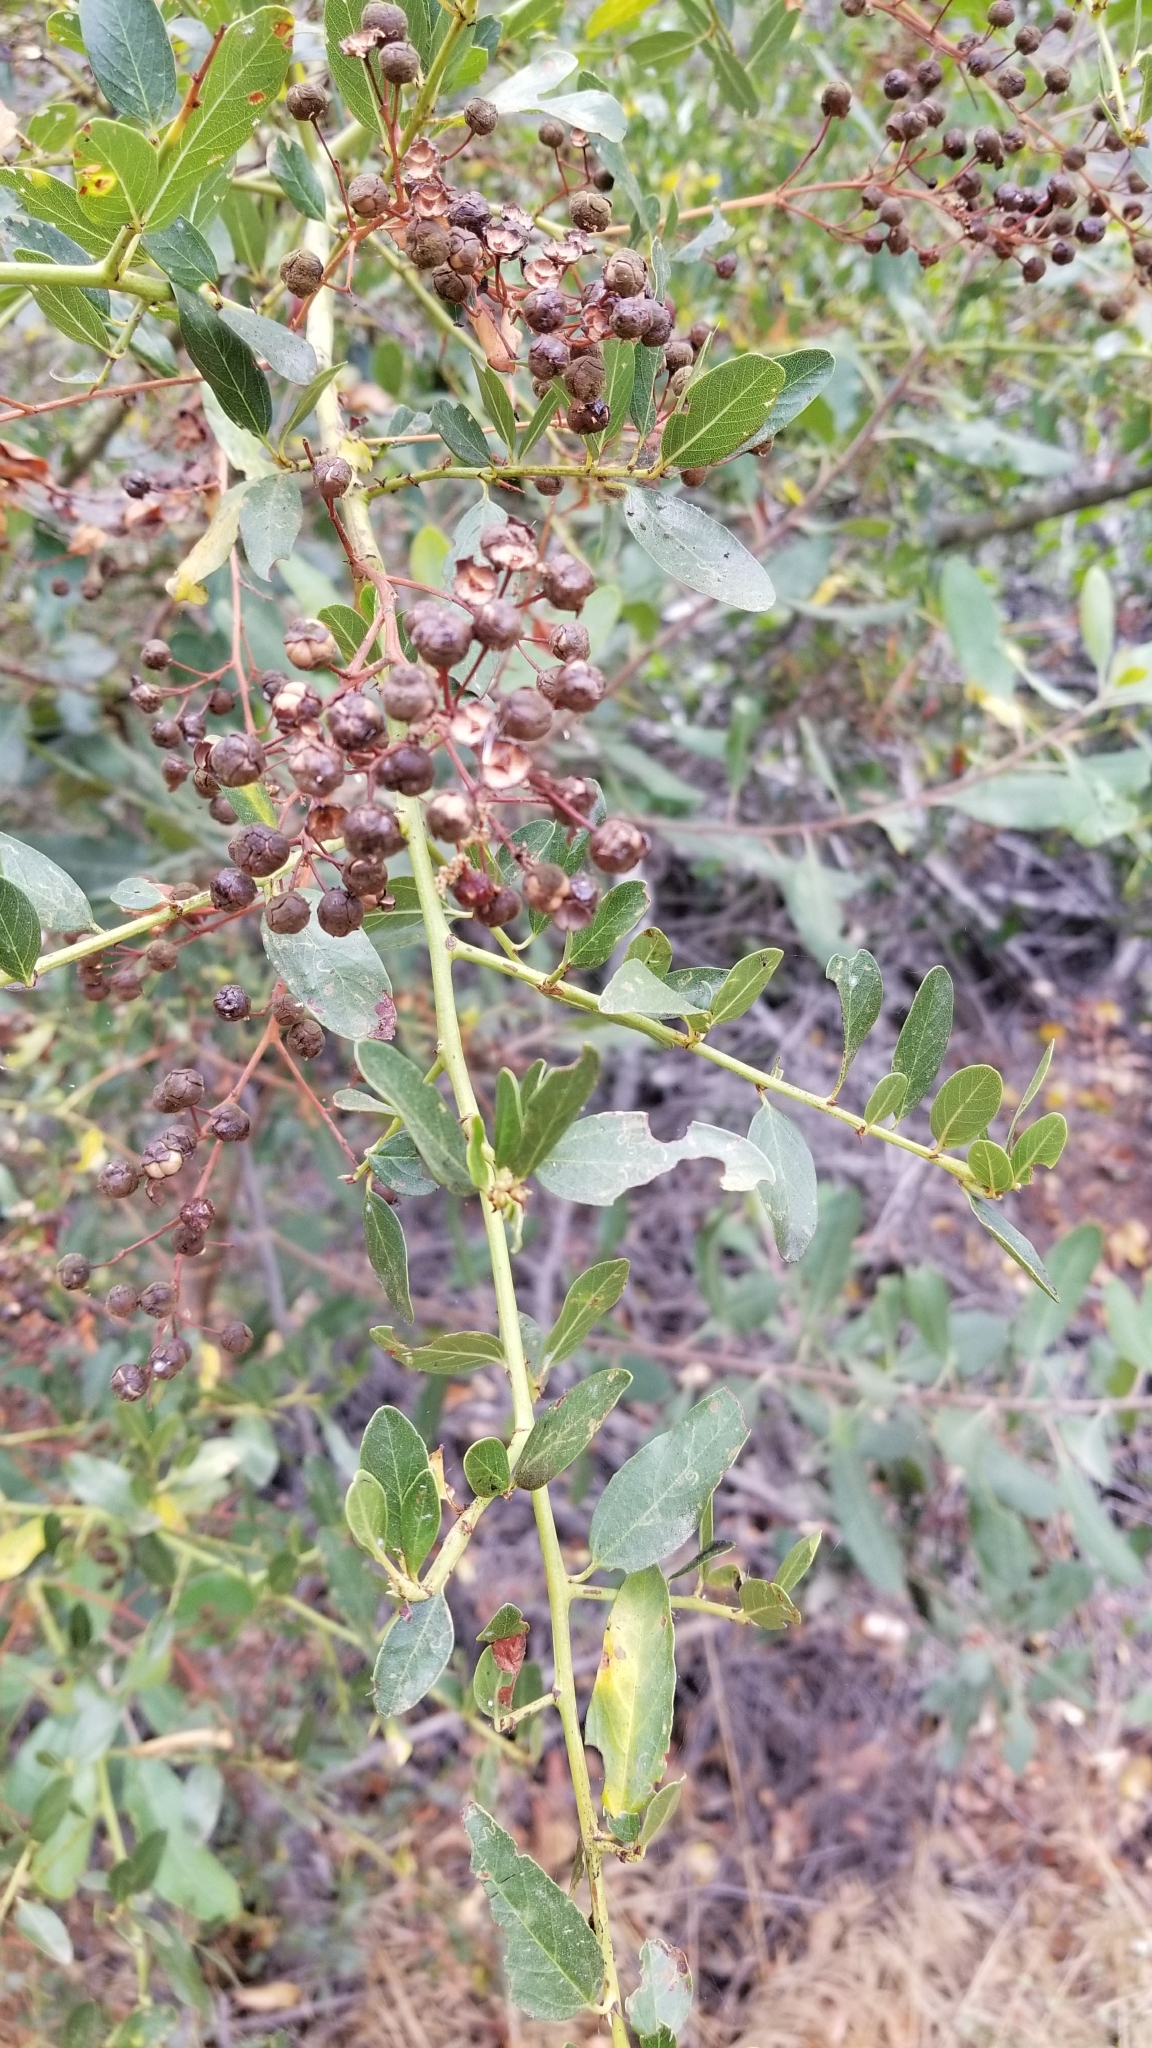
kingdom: Plantae
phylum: Tracheophyta
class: Magnoliopsida
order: Rosales
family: Rhamnaceae
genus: Ceanothus
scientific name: Ceanothus spinosus
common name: Greenbark whitethorn
